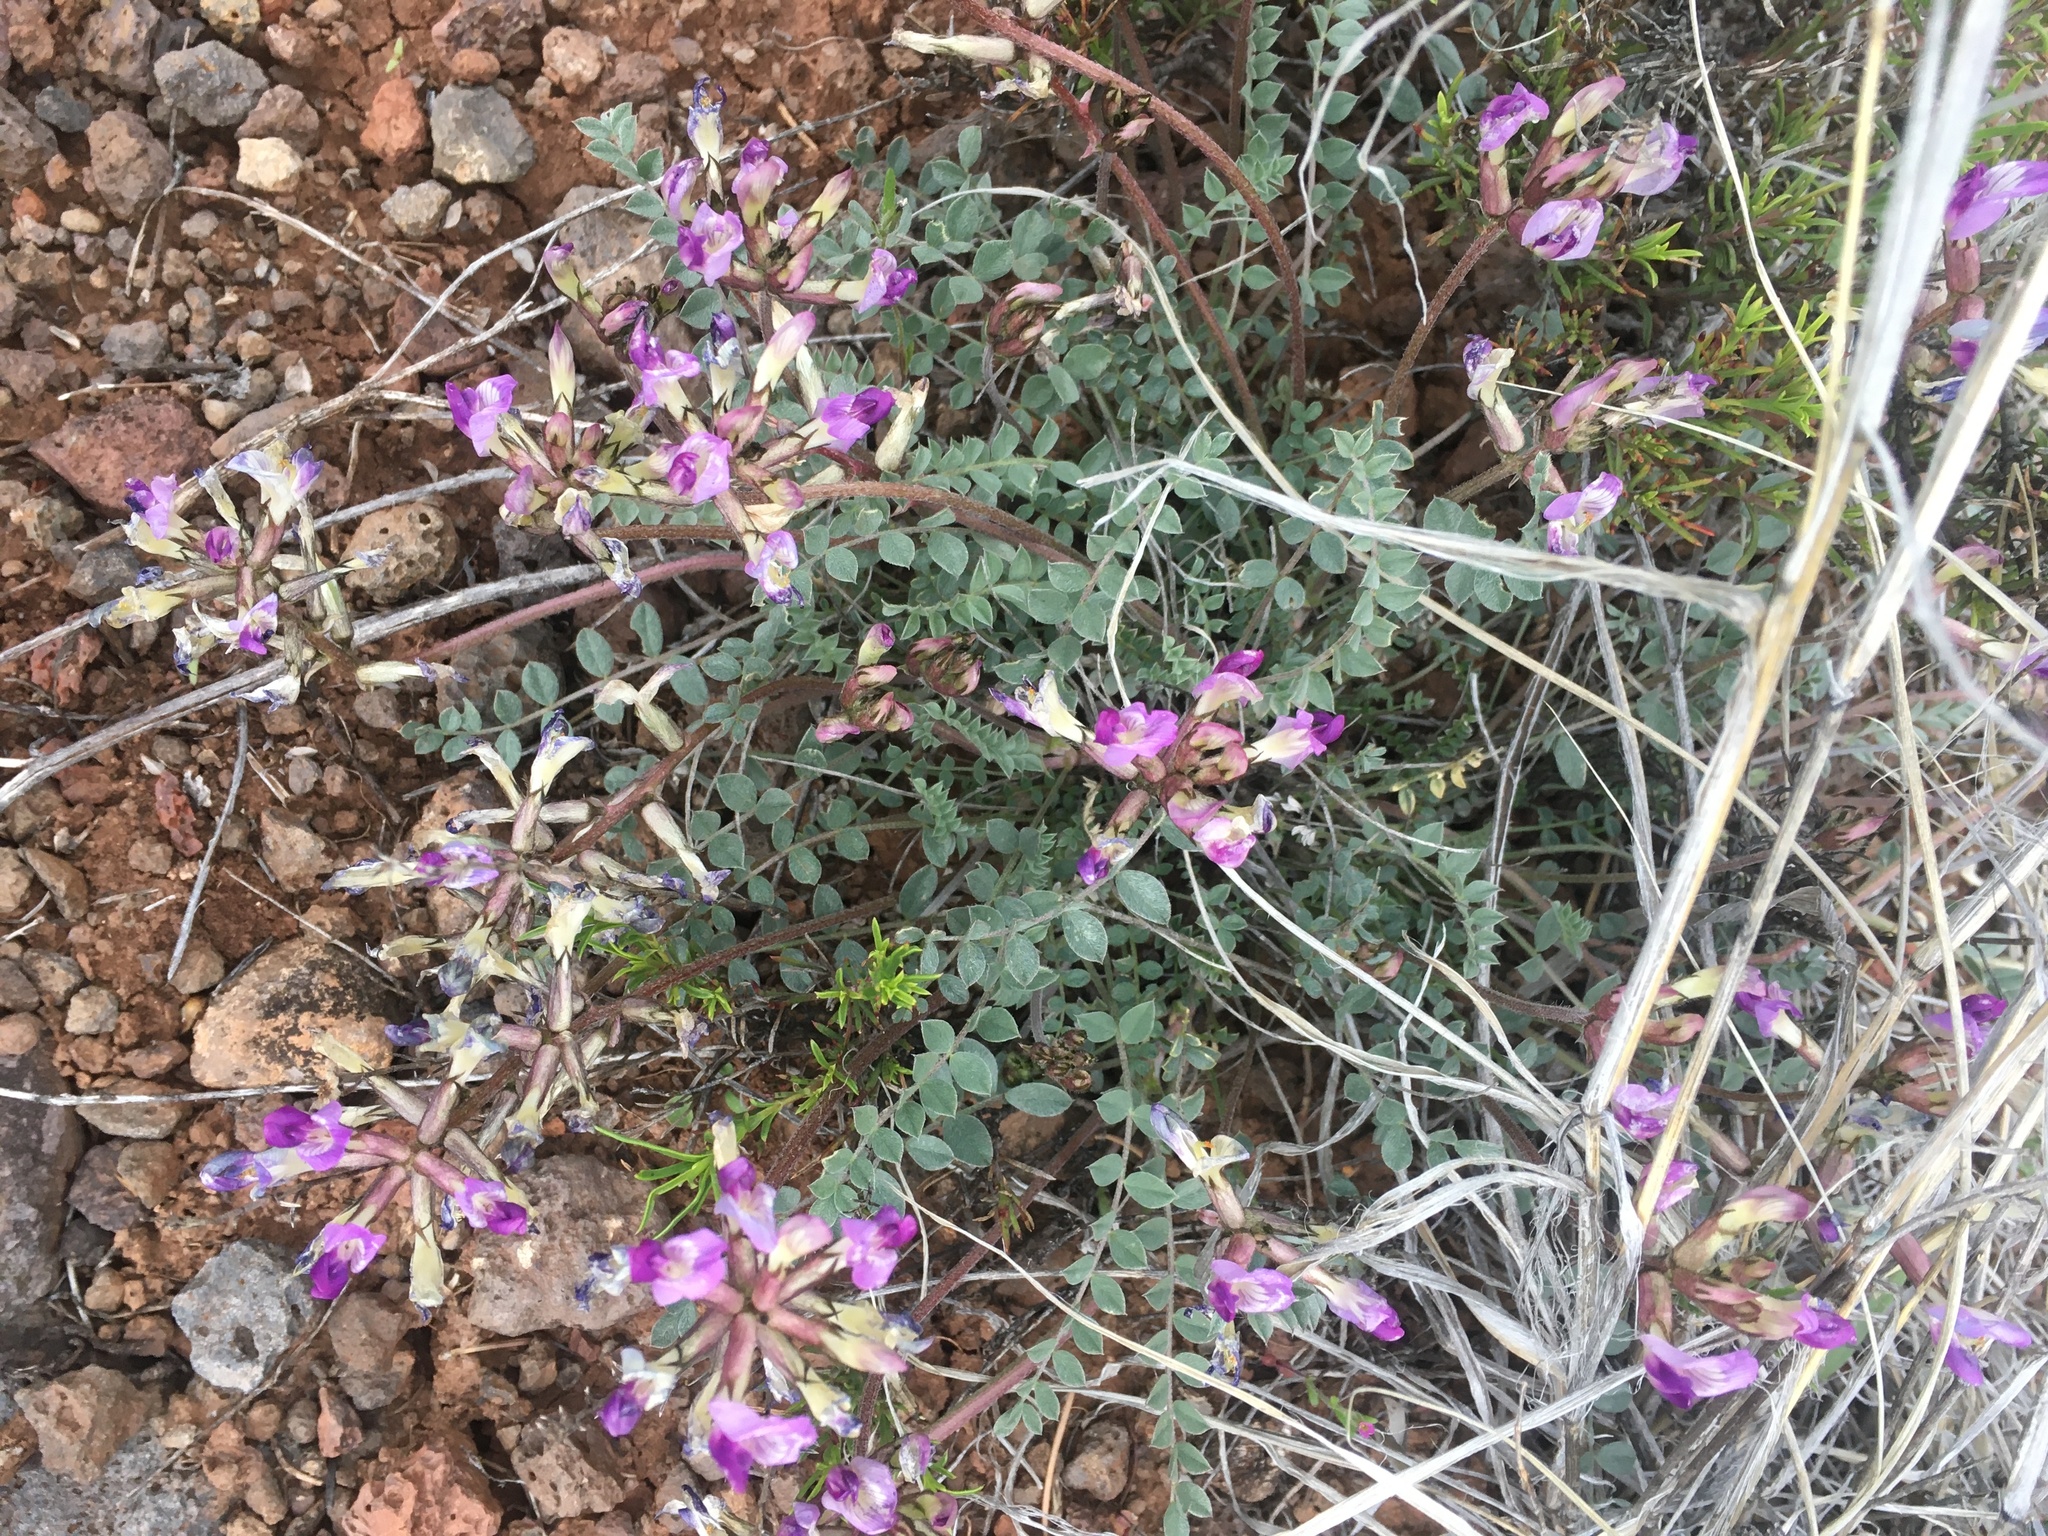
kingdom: Plantae
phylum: Tracheophyta
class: Magnoliopsida
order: Fabales
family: Fabaceae
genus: Astragalus
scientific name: Astragalus tephrodes
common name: Ashen milk-vetch
